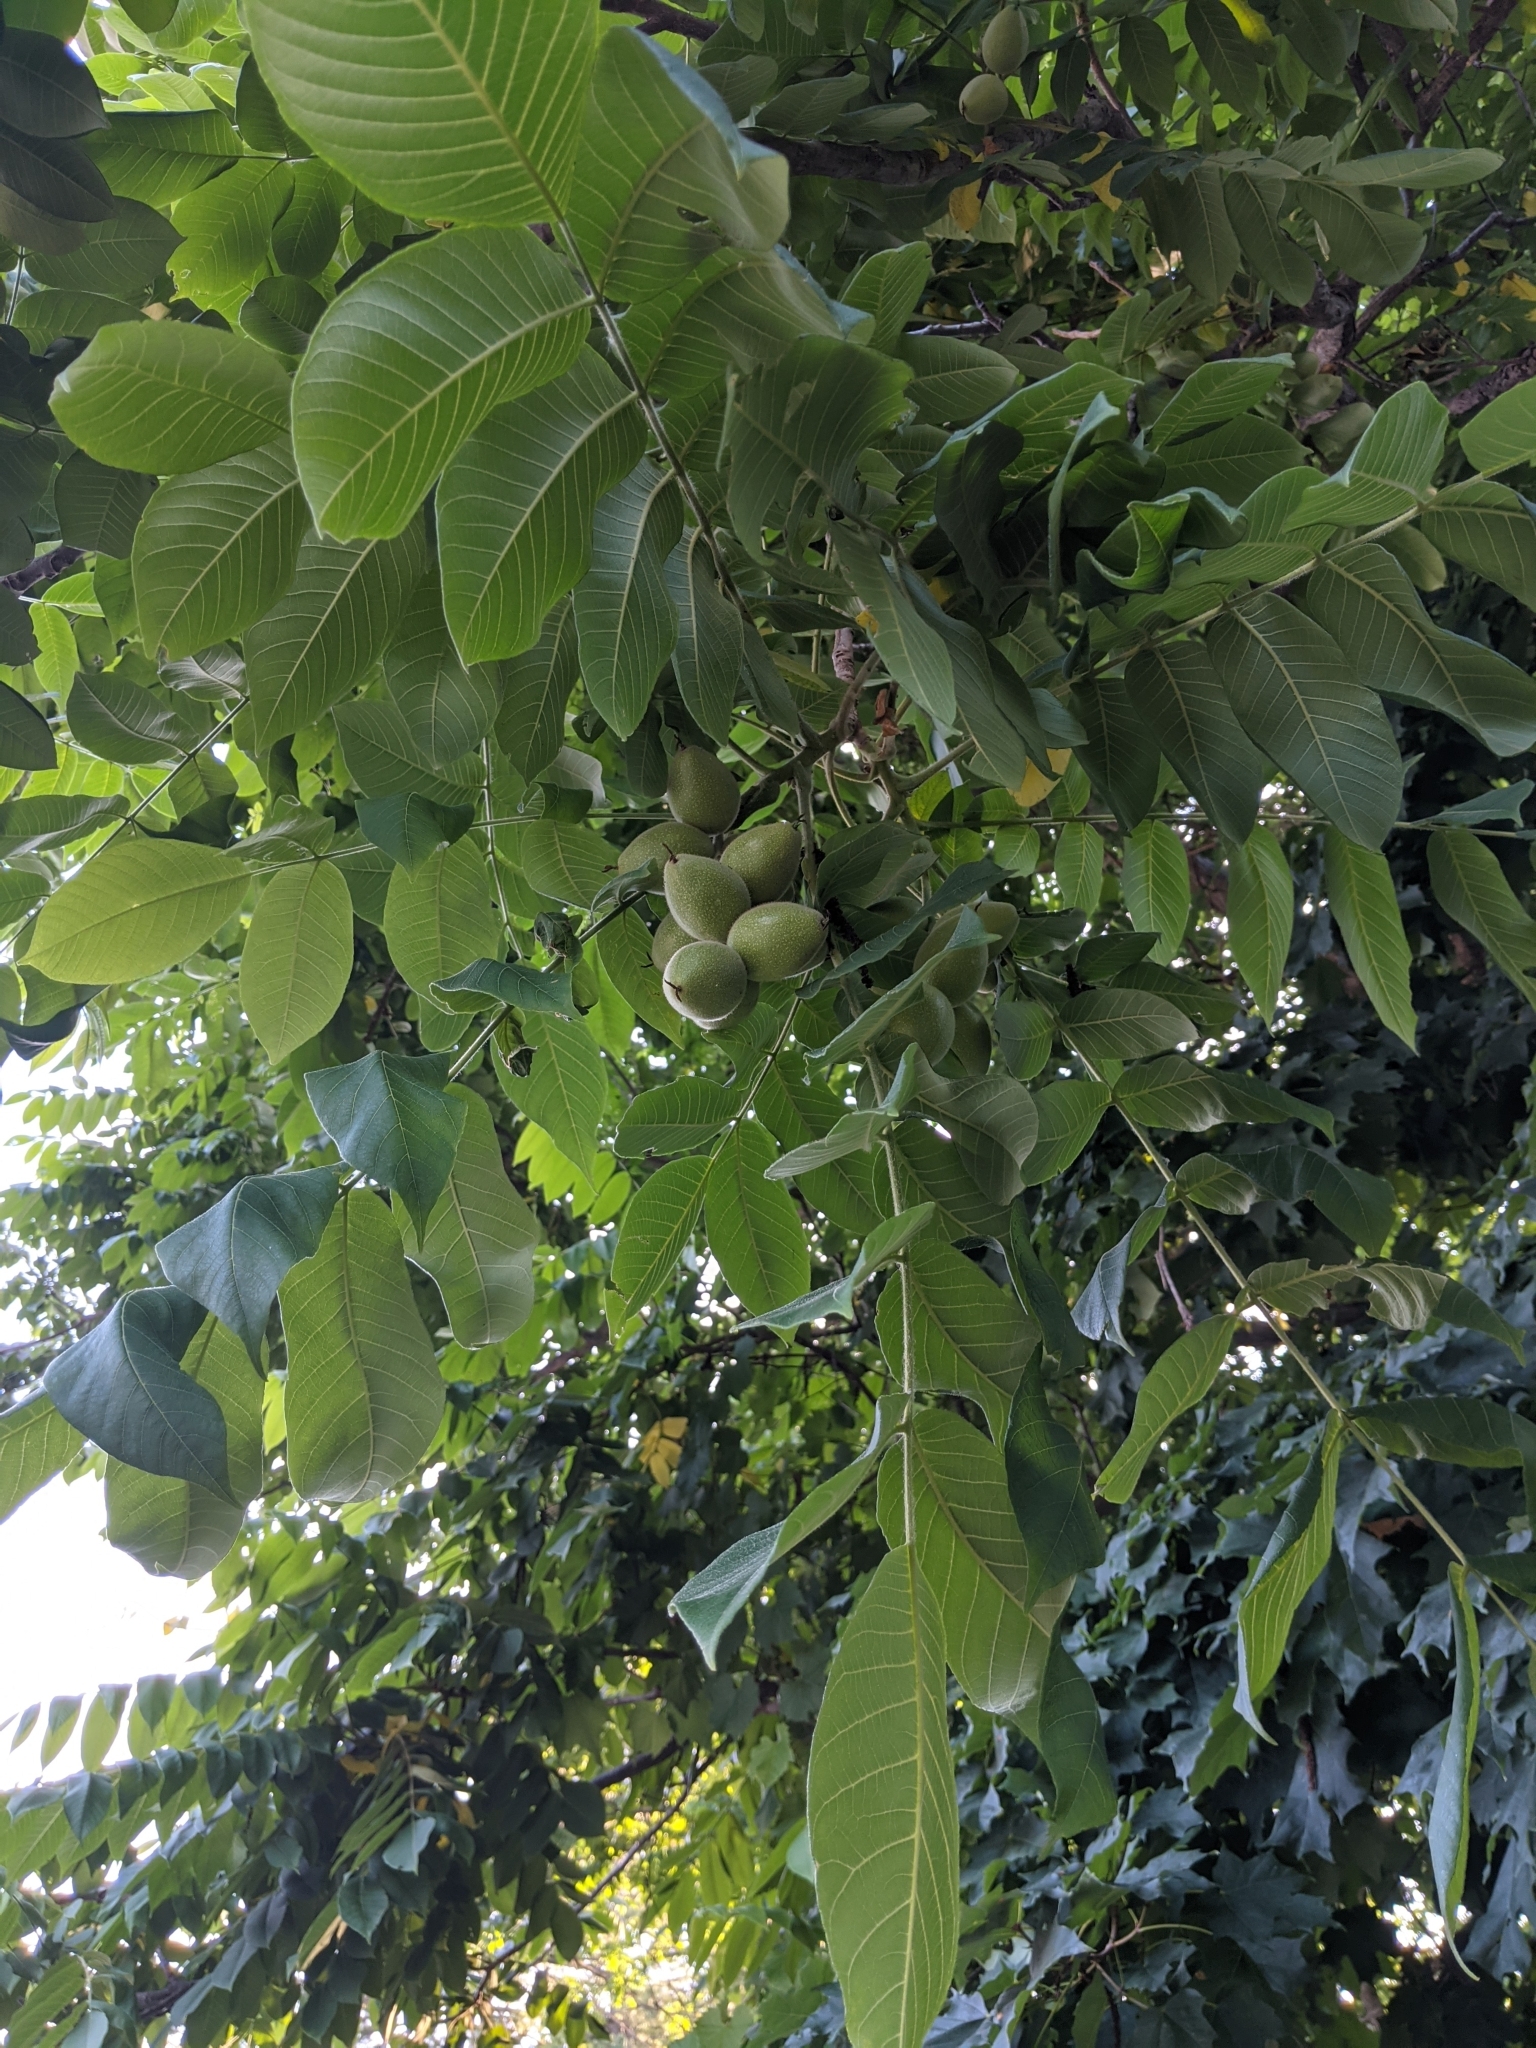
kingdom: Plantae
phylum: Tracheophyta
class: Magnoliopsida
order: Fagales
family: Juglandaceae
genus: Juglans
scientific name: Juglans cinerea
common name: Butternut
